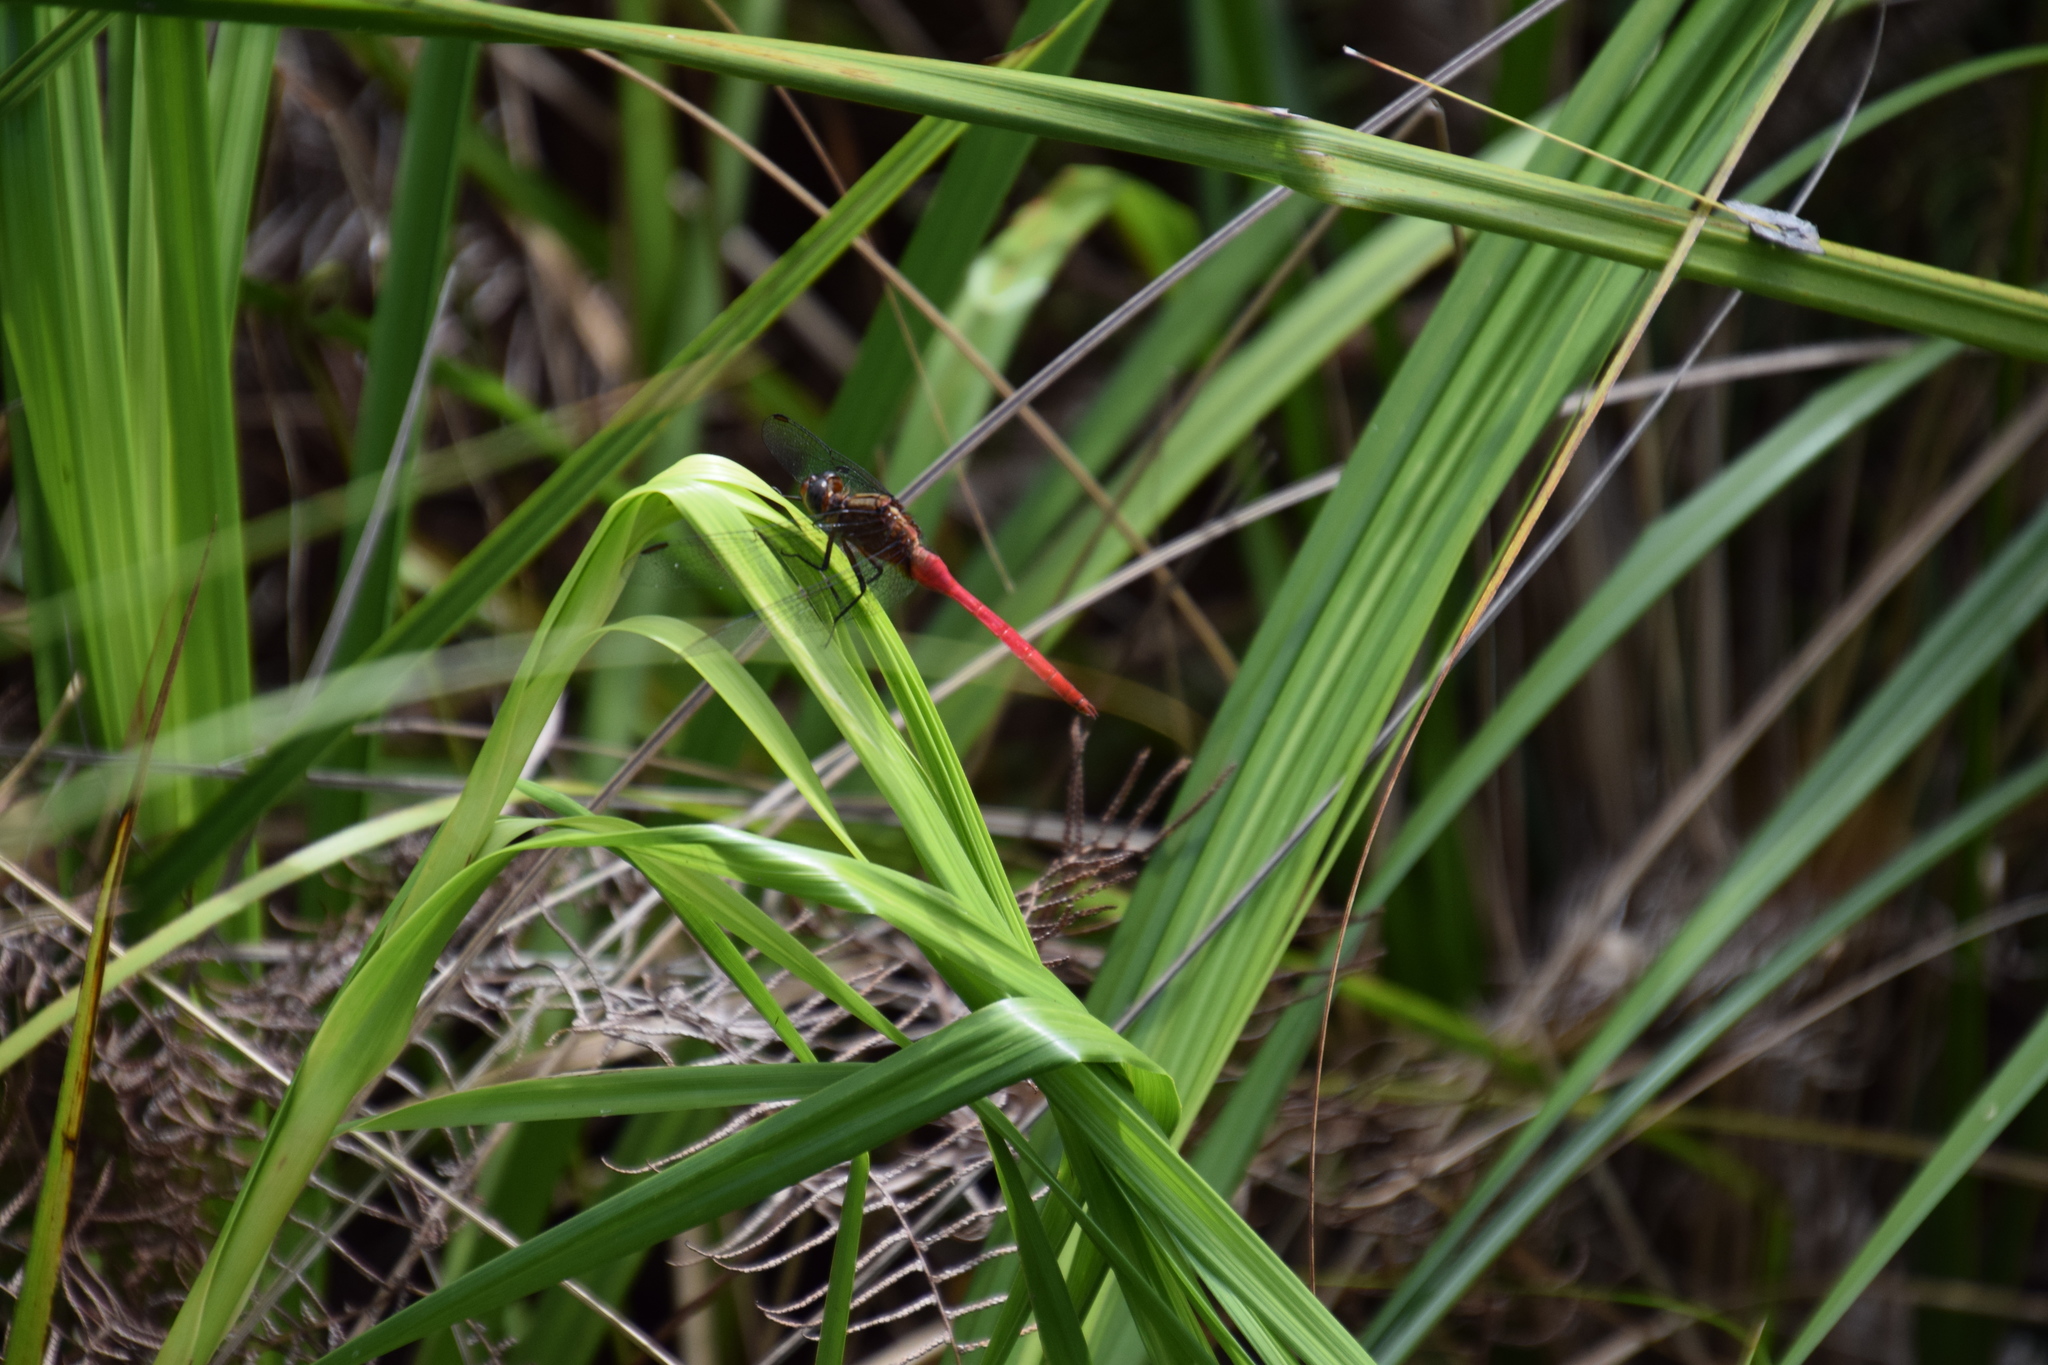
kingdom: Animalia
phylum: Arthropoda
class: Insecta
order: Odonata
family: Libellulidae
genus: Orthetrum
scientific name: Orthetrum villosovittatum
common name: Firery skimmer
